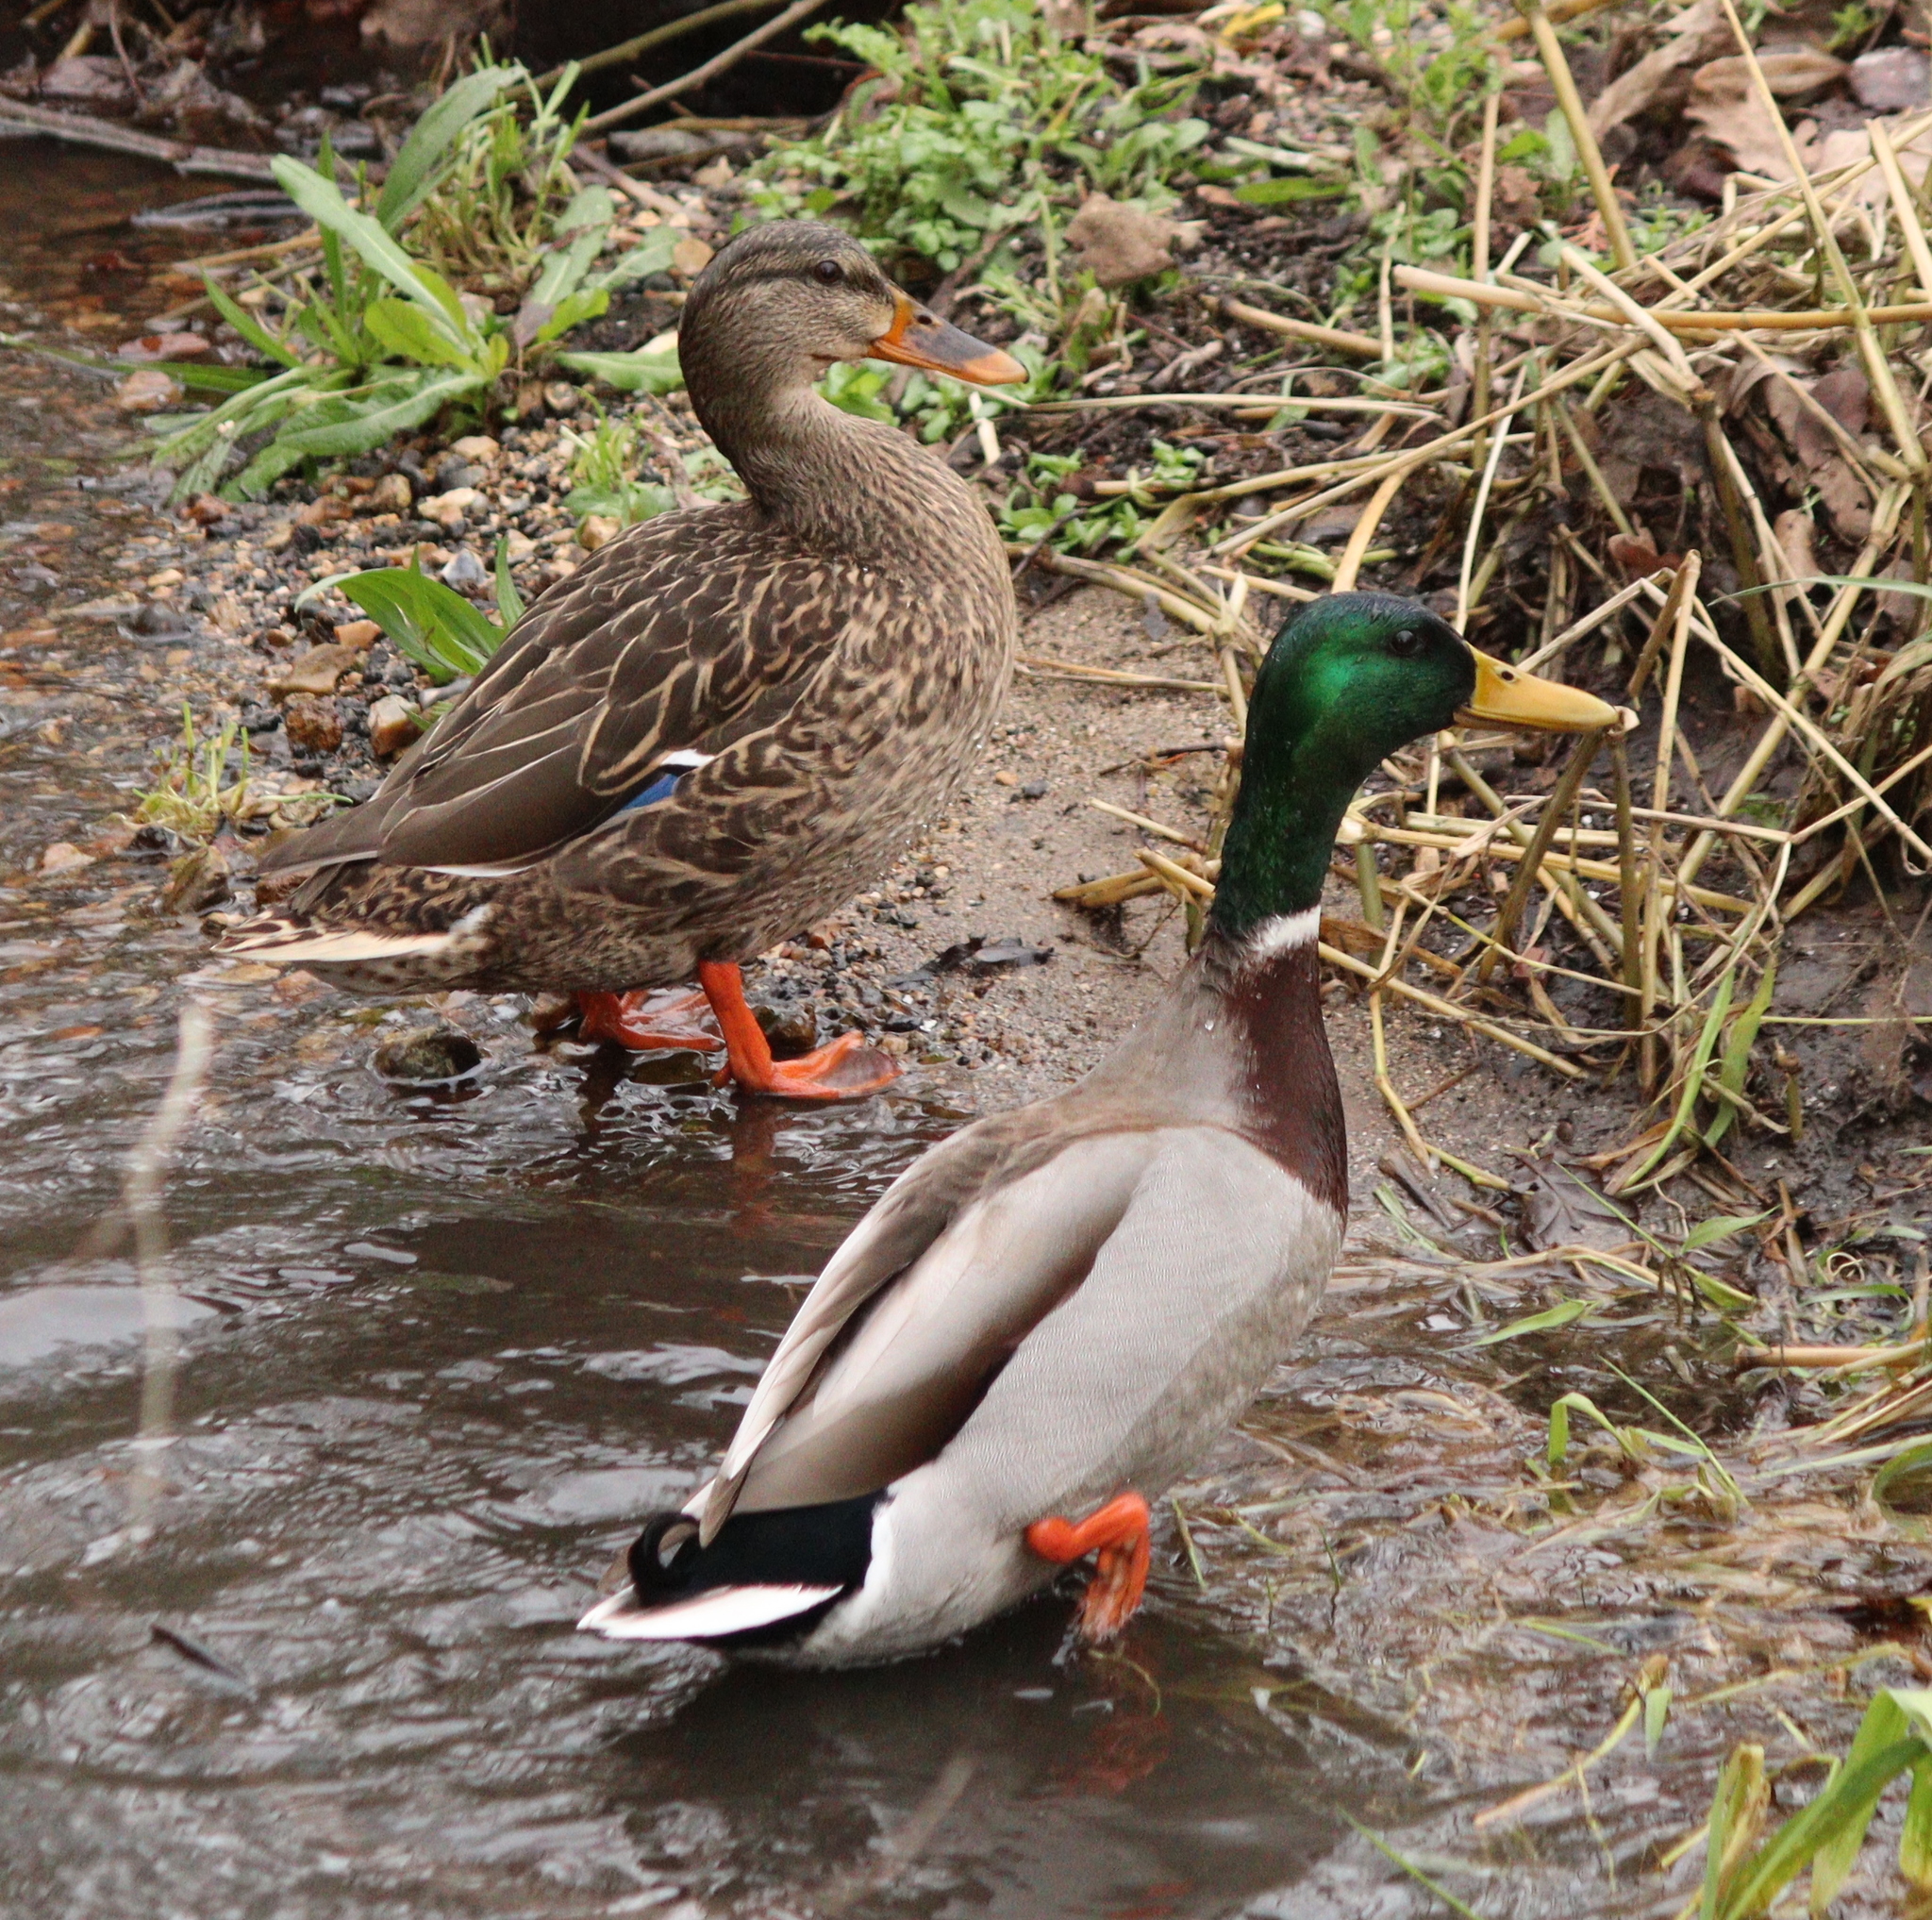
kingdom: Animalia
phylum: Chordata
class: Aves
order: Anseriformes
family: Anatidae
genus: Anas
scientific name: Anas platyrhynchos
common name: Mallard
